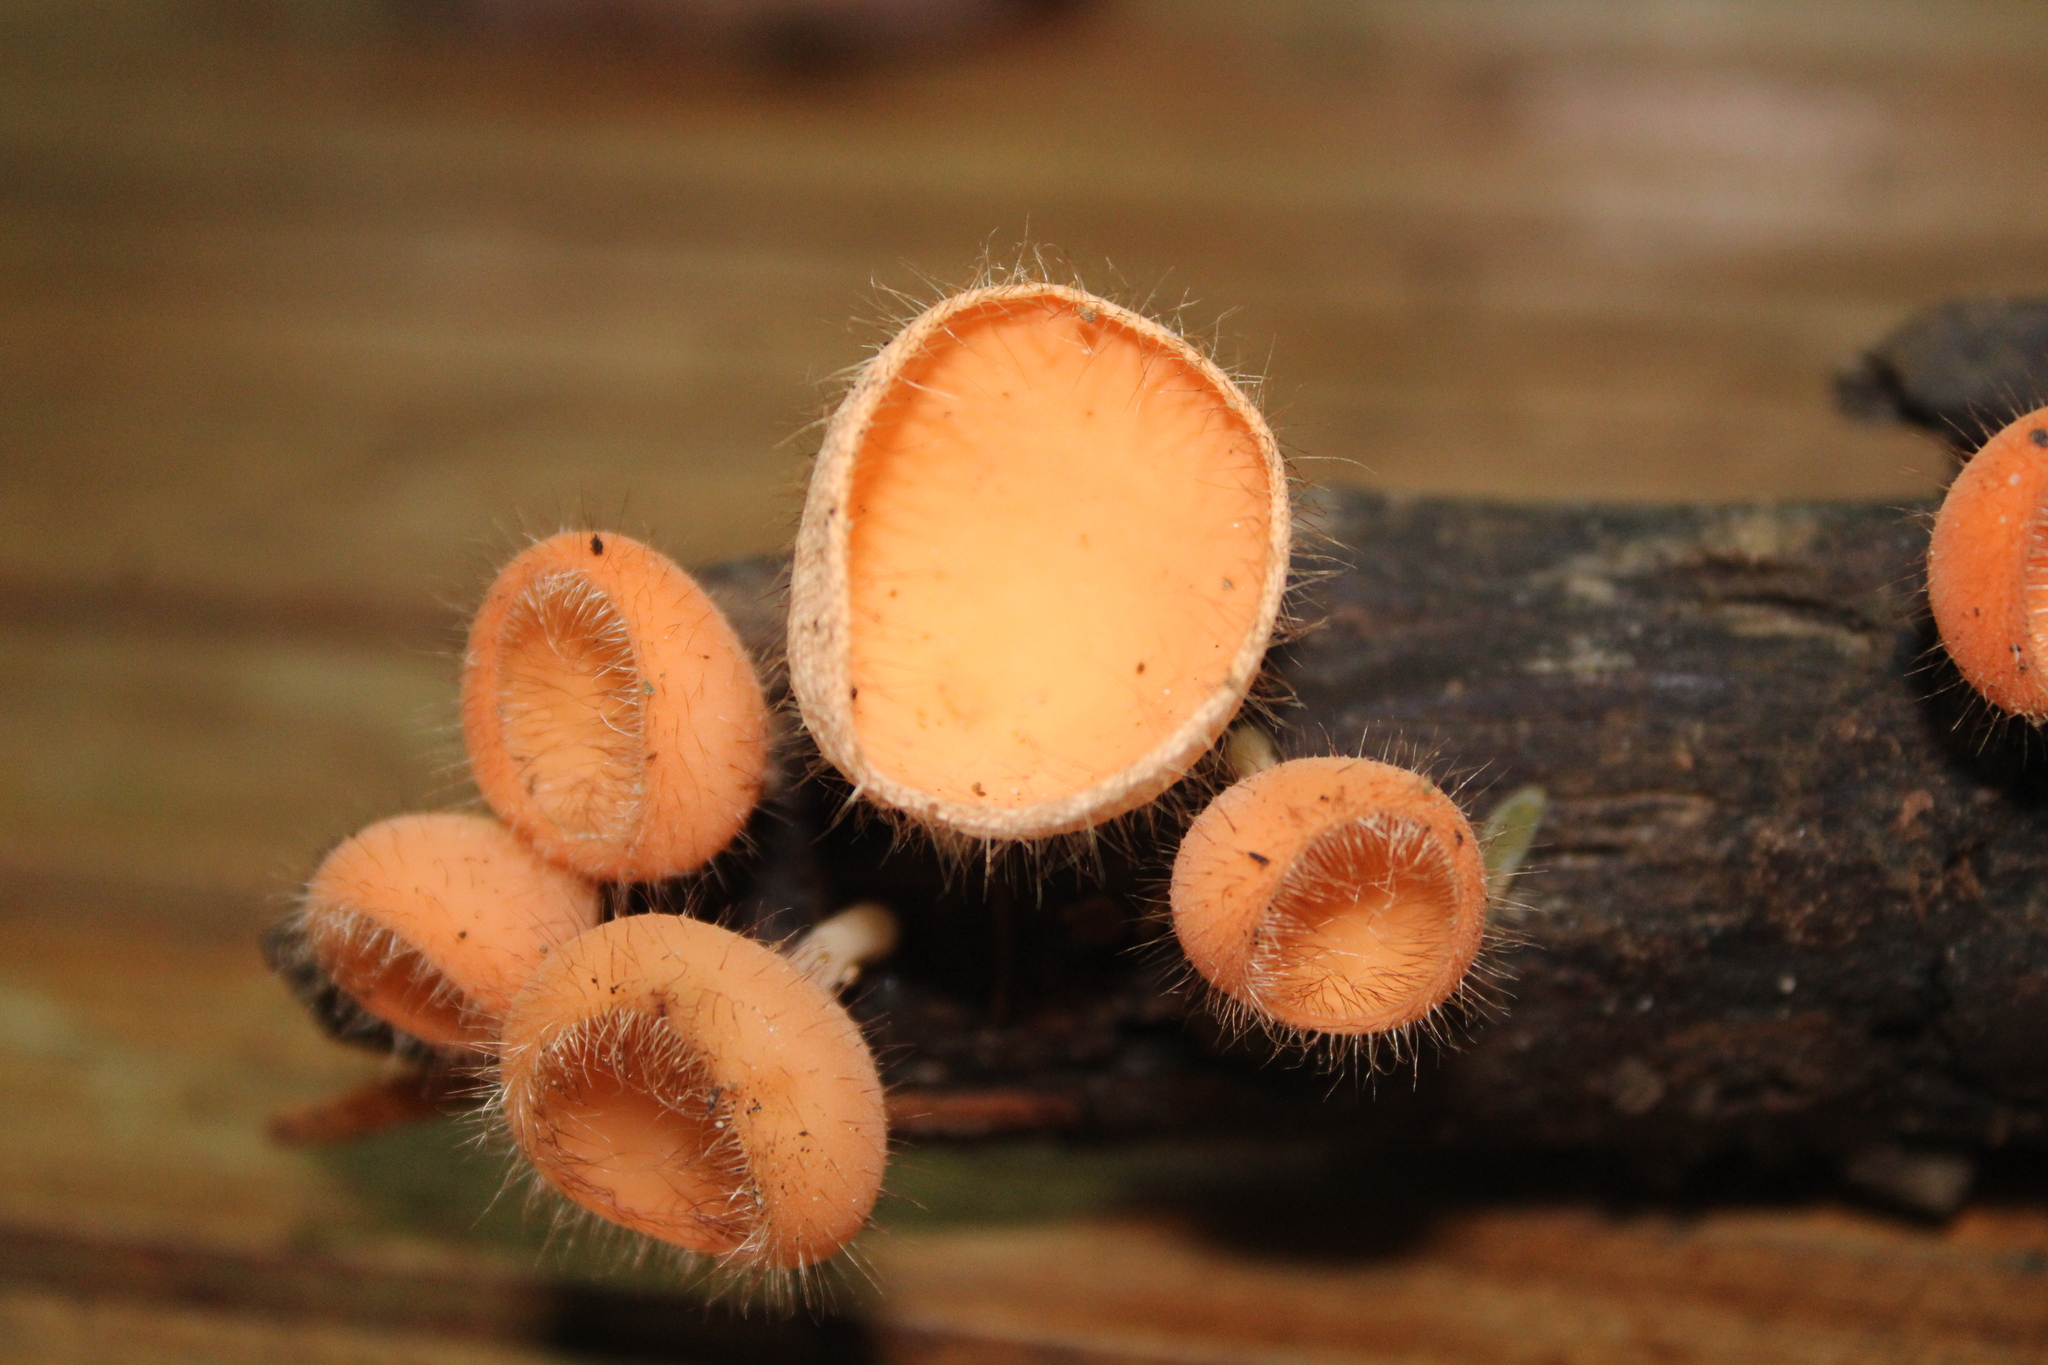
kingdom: Fungi
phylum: Ascomycota
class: Pezizomycetes
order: Pezizales
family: Sarcoscyphaceae
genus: Cookeina
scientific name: Cookeina tricholoma
